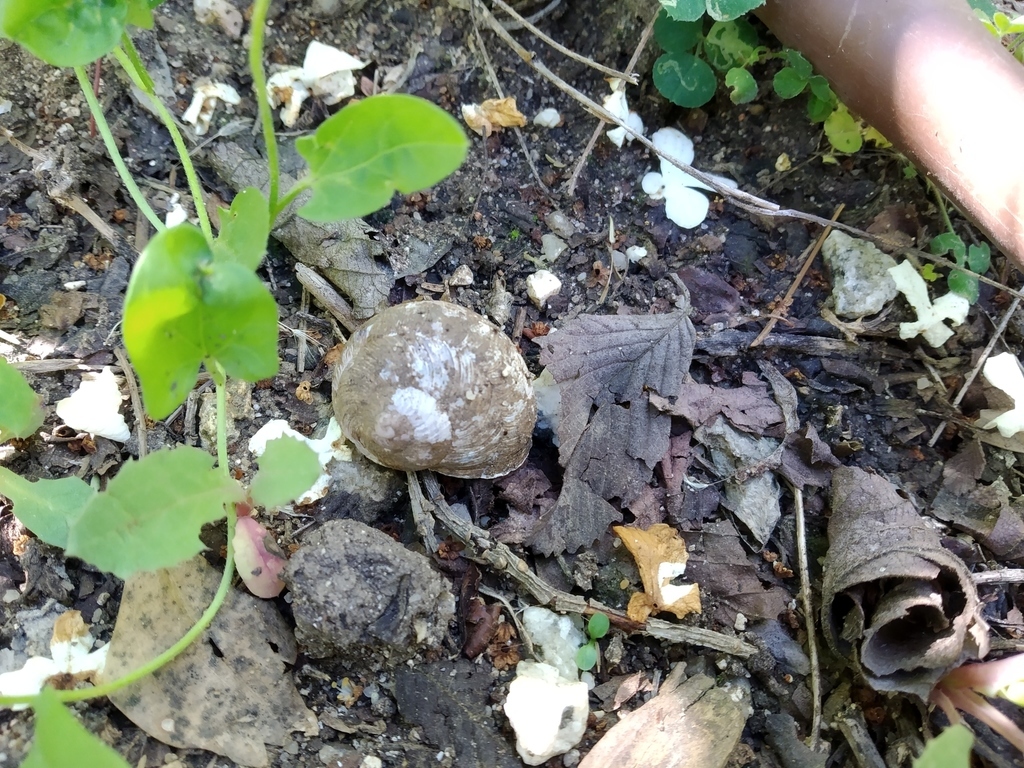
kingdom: Animalia
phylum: Mollusca
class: Gastropoda
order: Stylommatophora
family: Helicidae
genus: Cornu
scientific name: Cornu aspersum
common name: Brown garden snail
